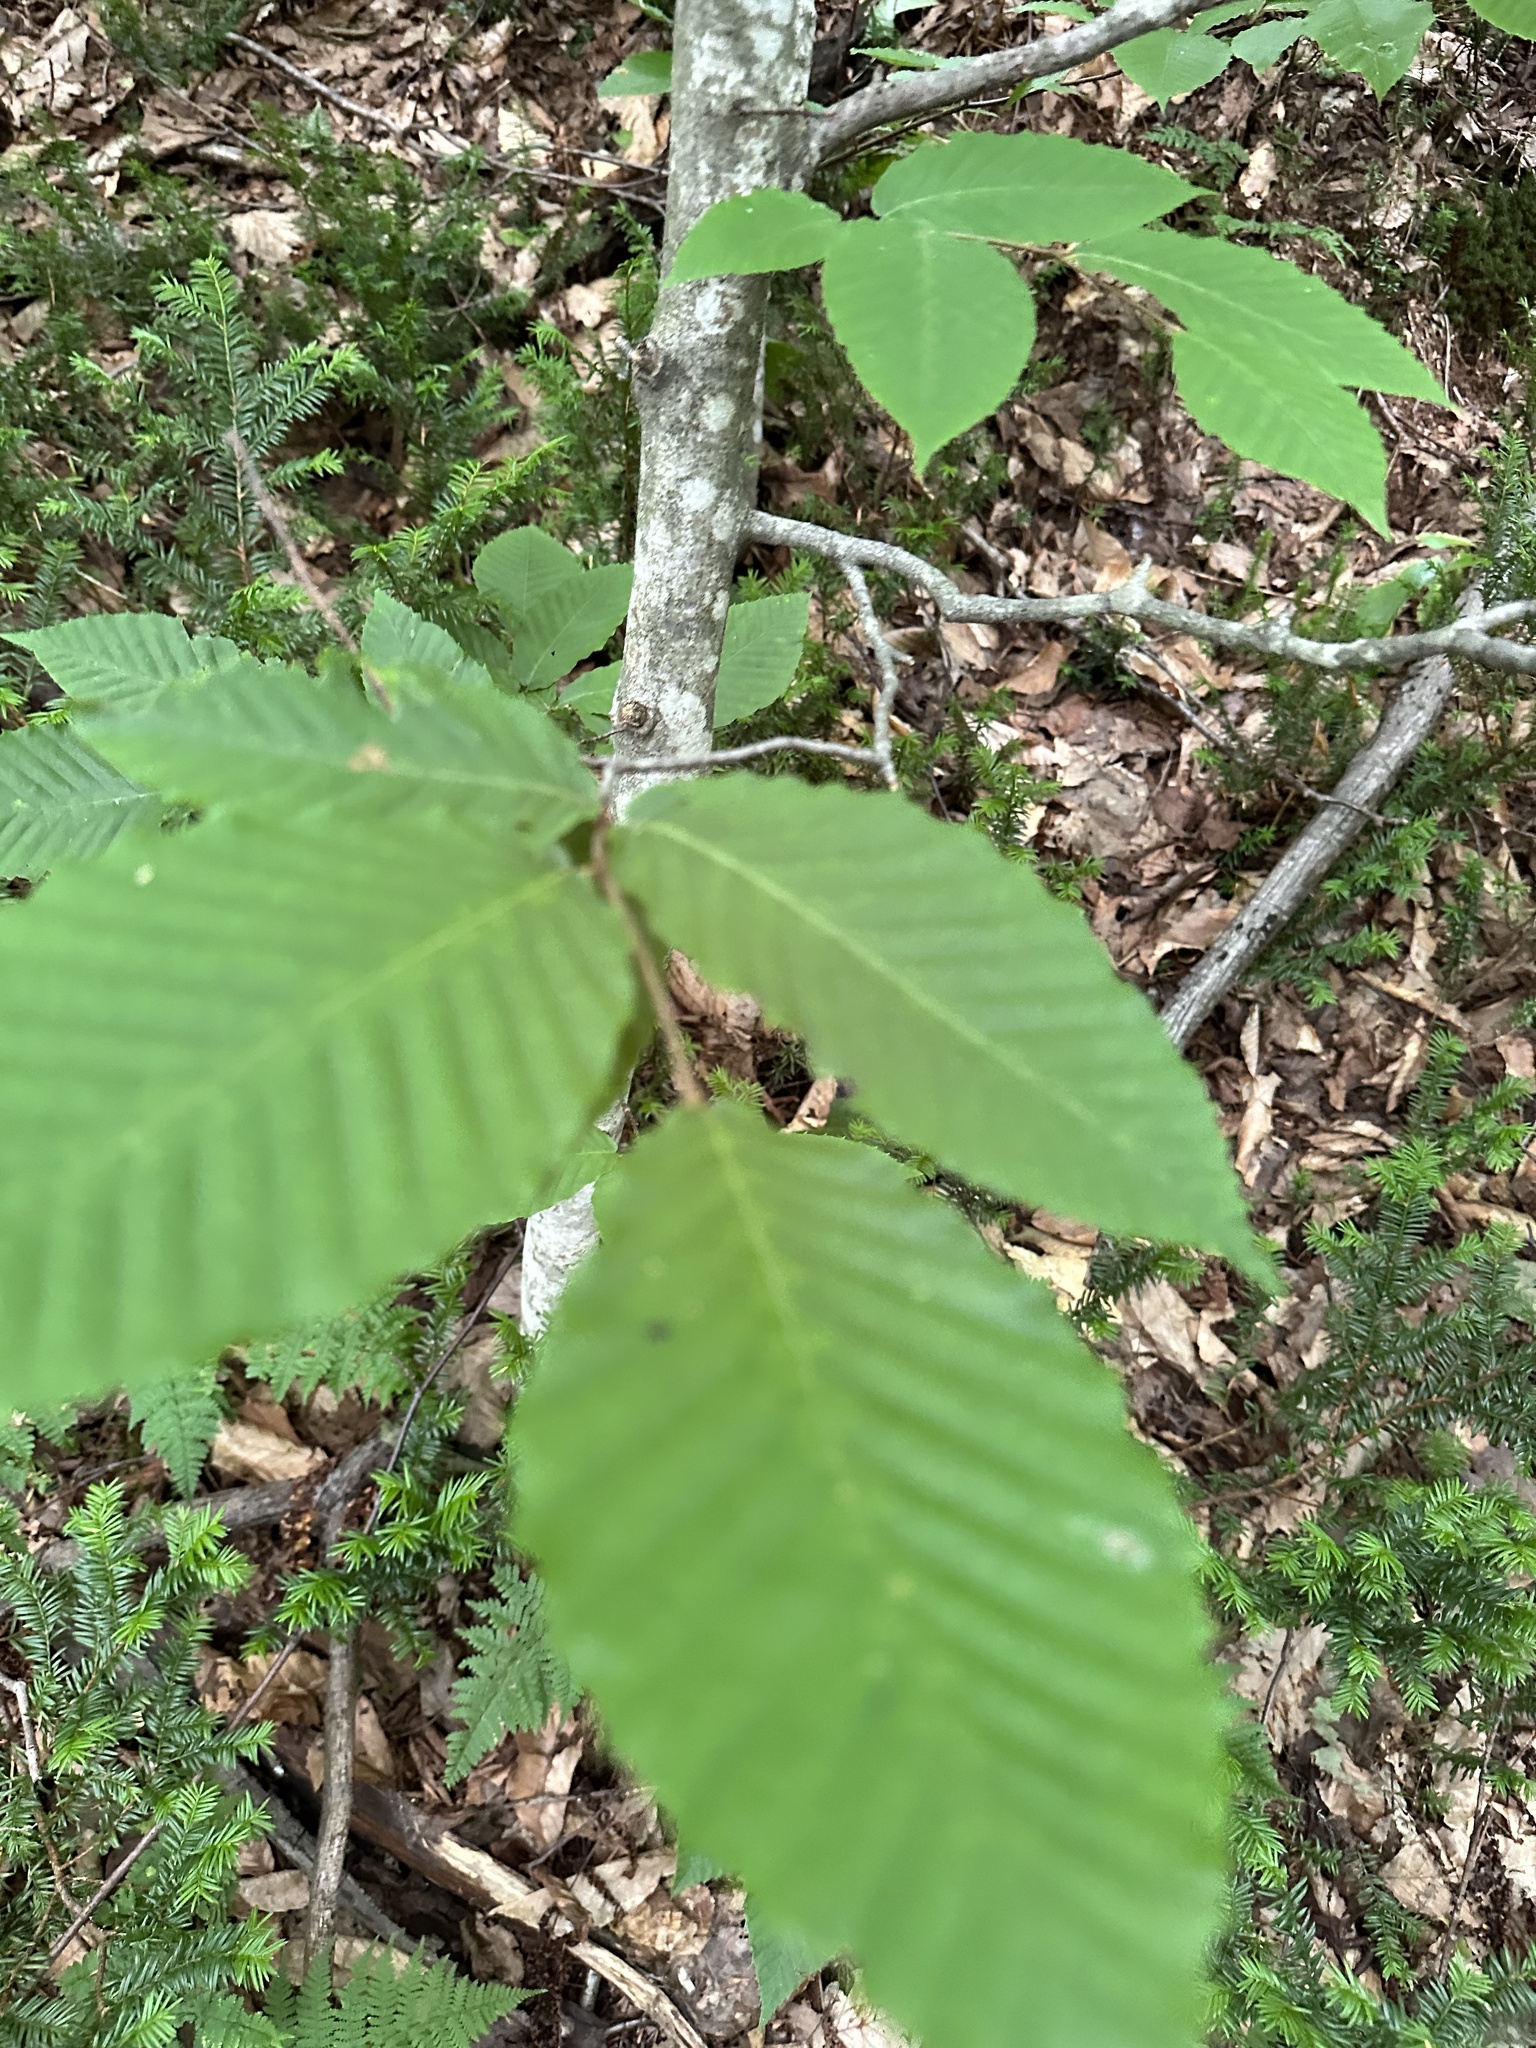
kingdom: Plantae
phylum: Tracheophyta
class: Magnoliopsida
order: Fagales
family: Fagaceae
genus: Fagus
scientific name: Fagus grandifolia
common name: American beech
